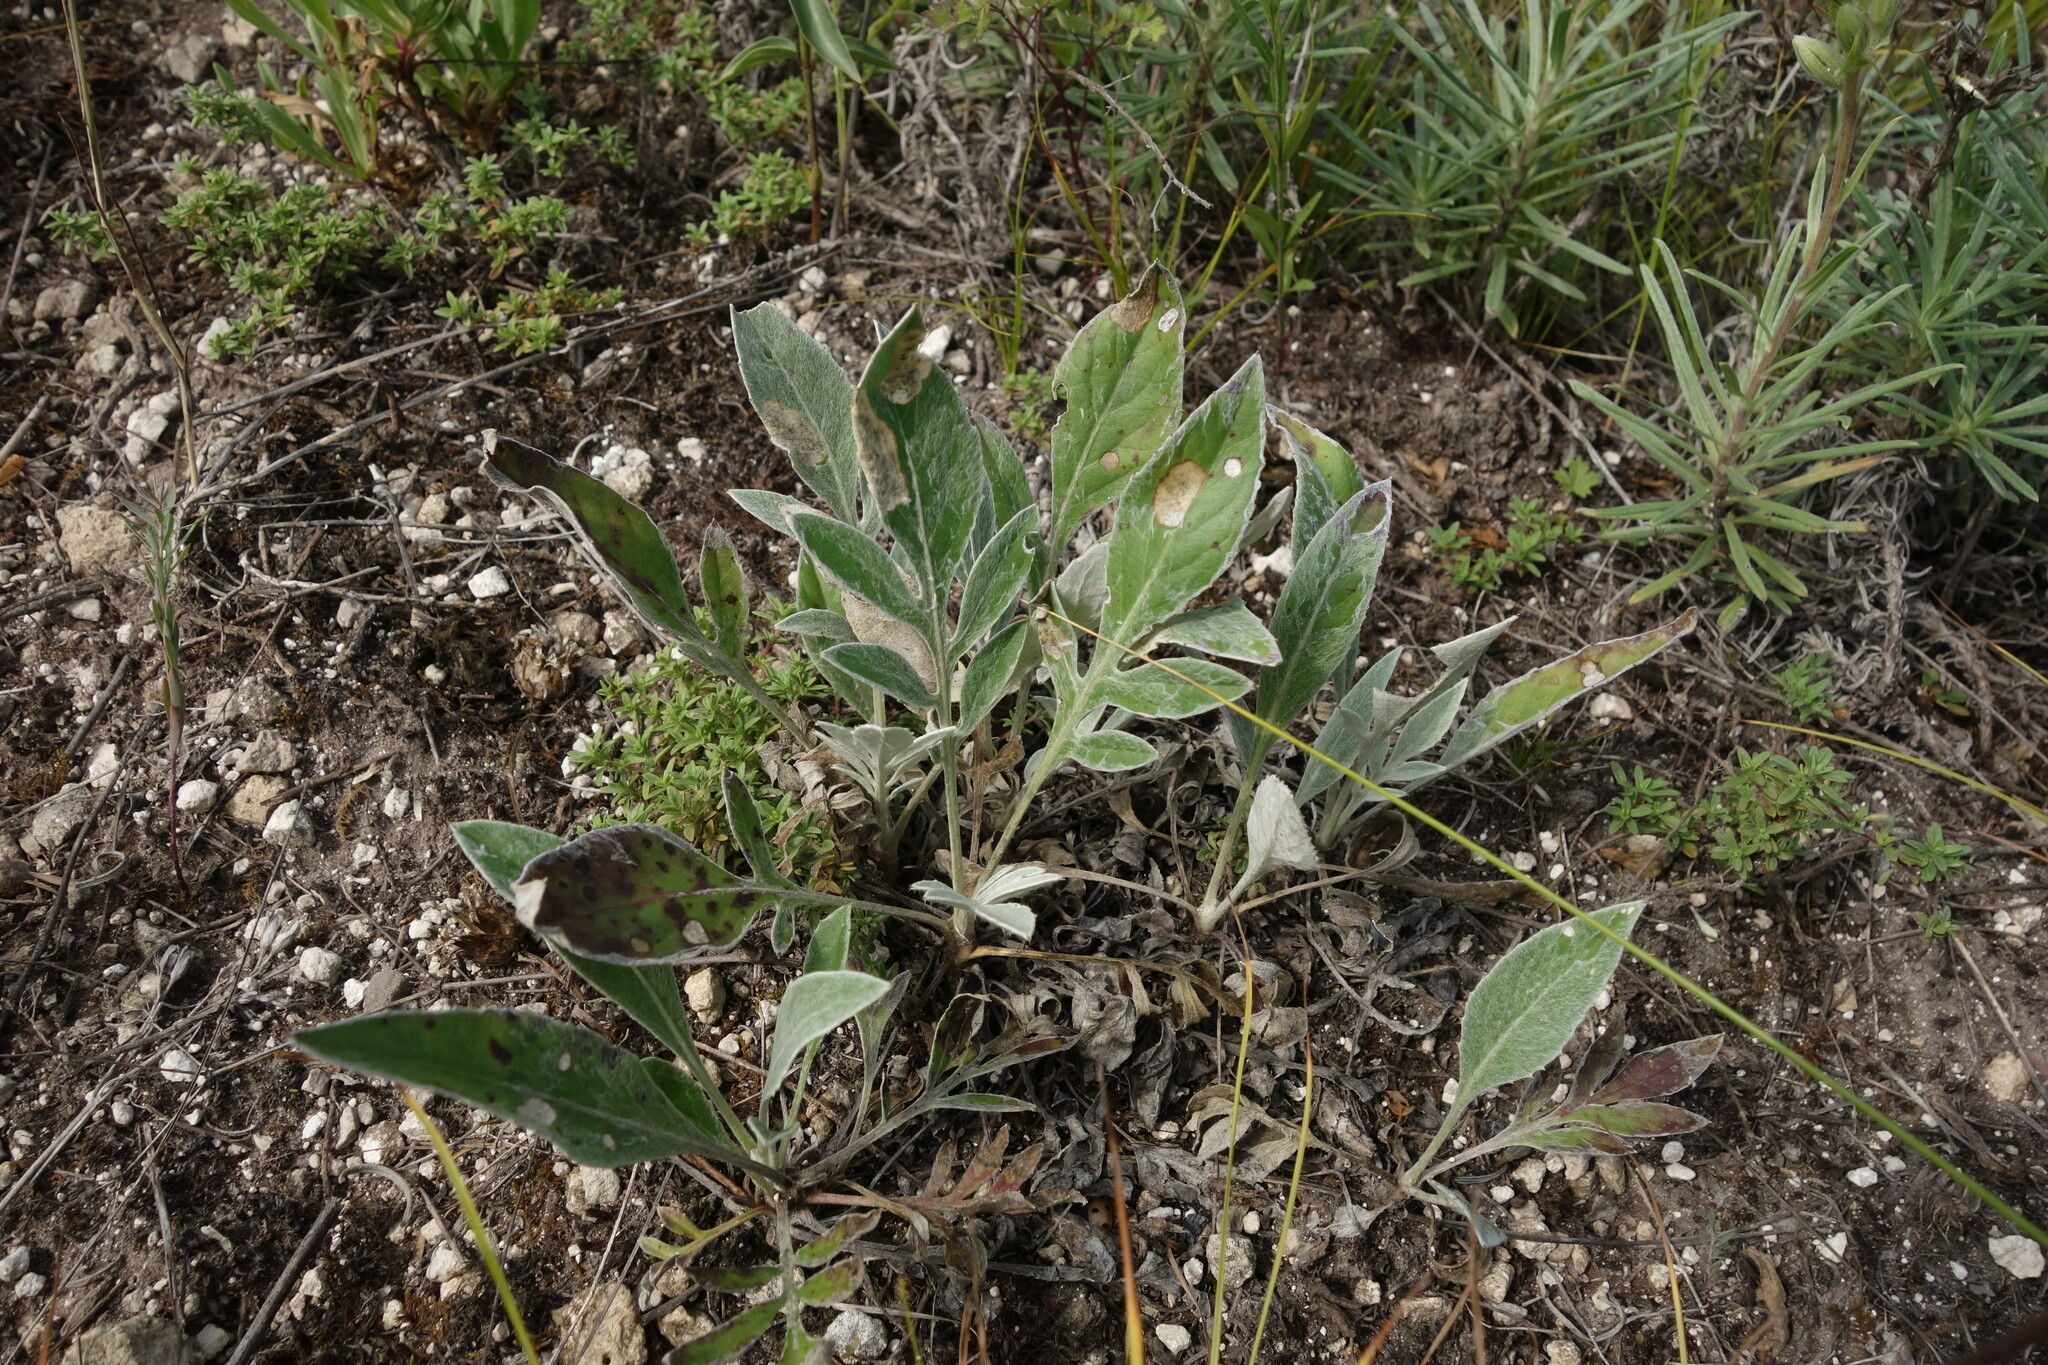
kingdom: Plantae
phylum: Tracheophyta
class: Magnoliopsida
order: Asterales
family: Asteraceae
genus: Psephellus
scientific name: Psephellus sumensis
